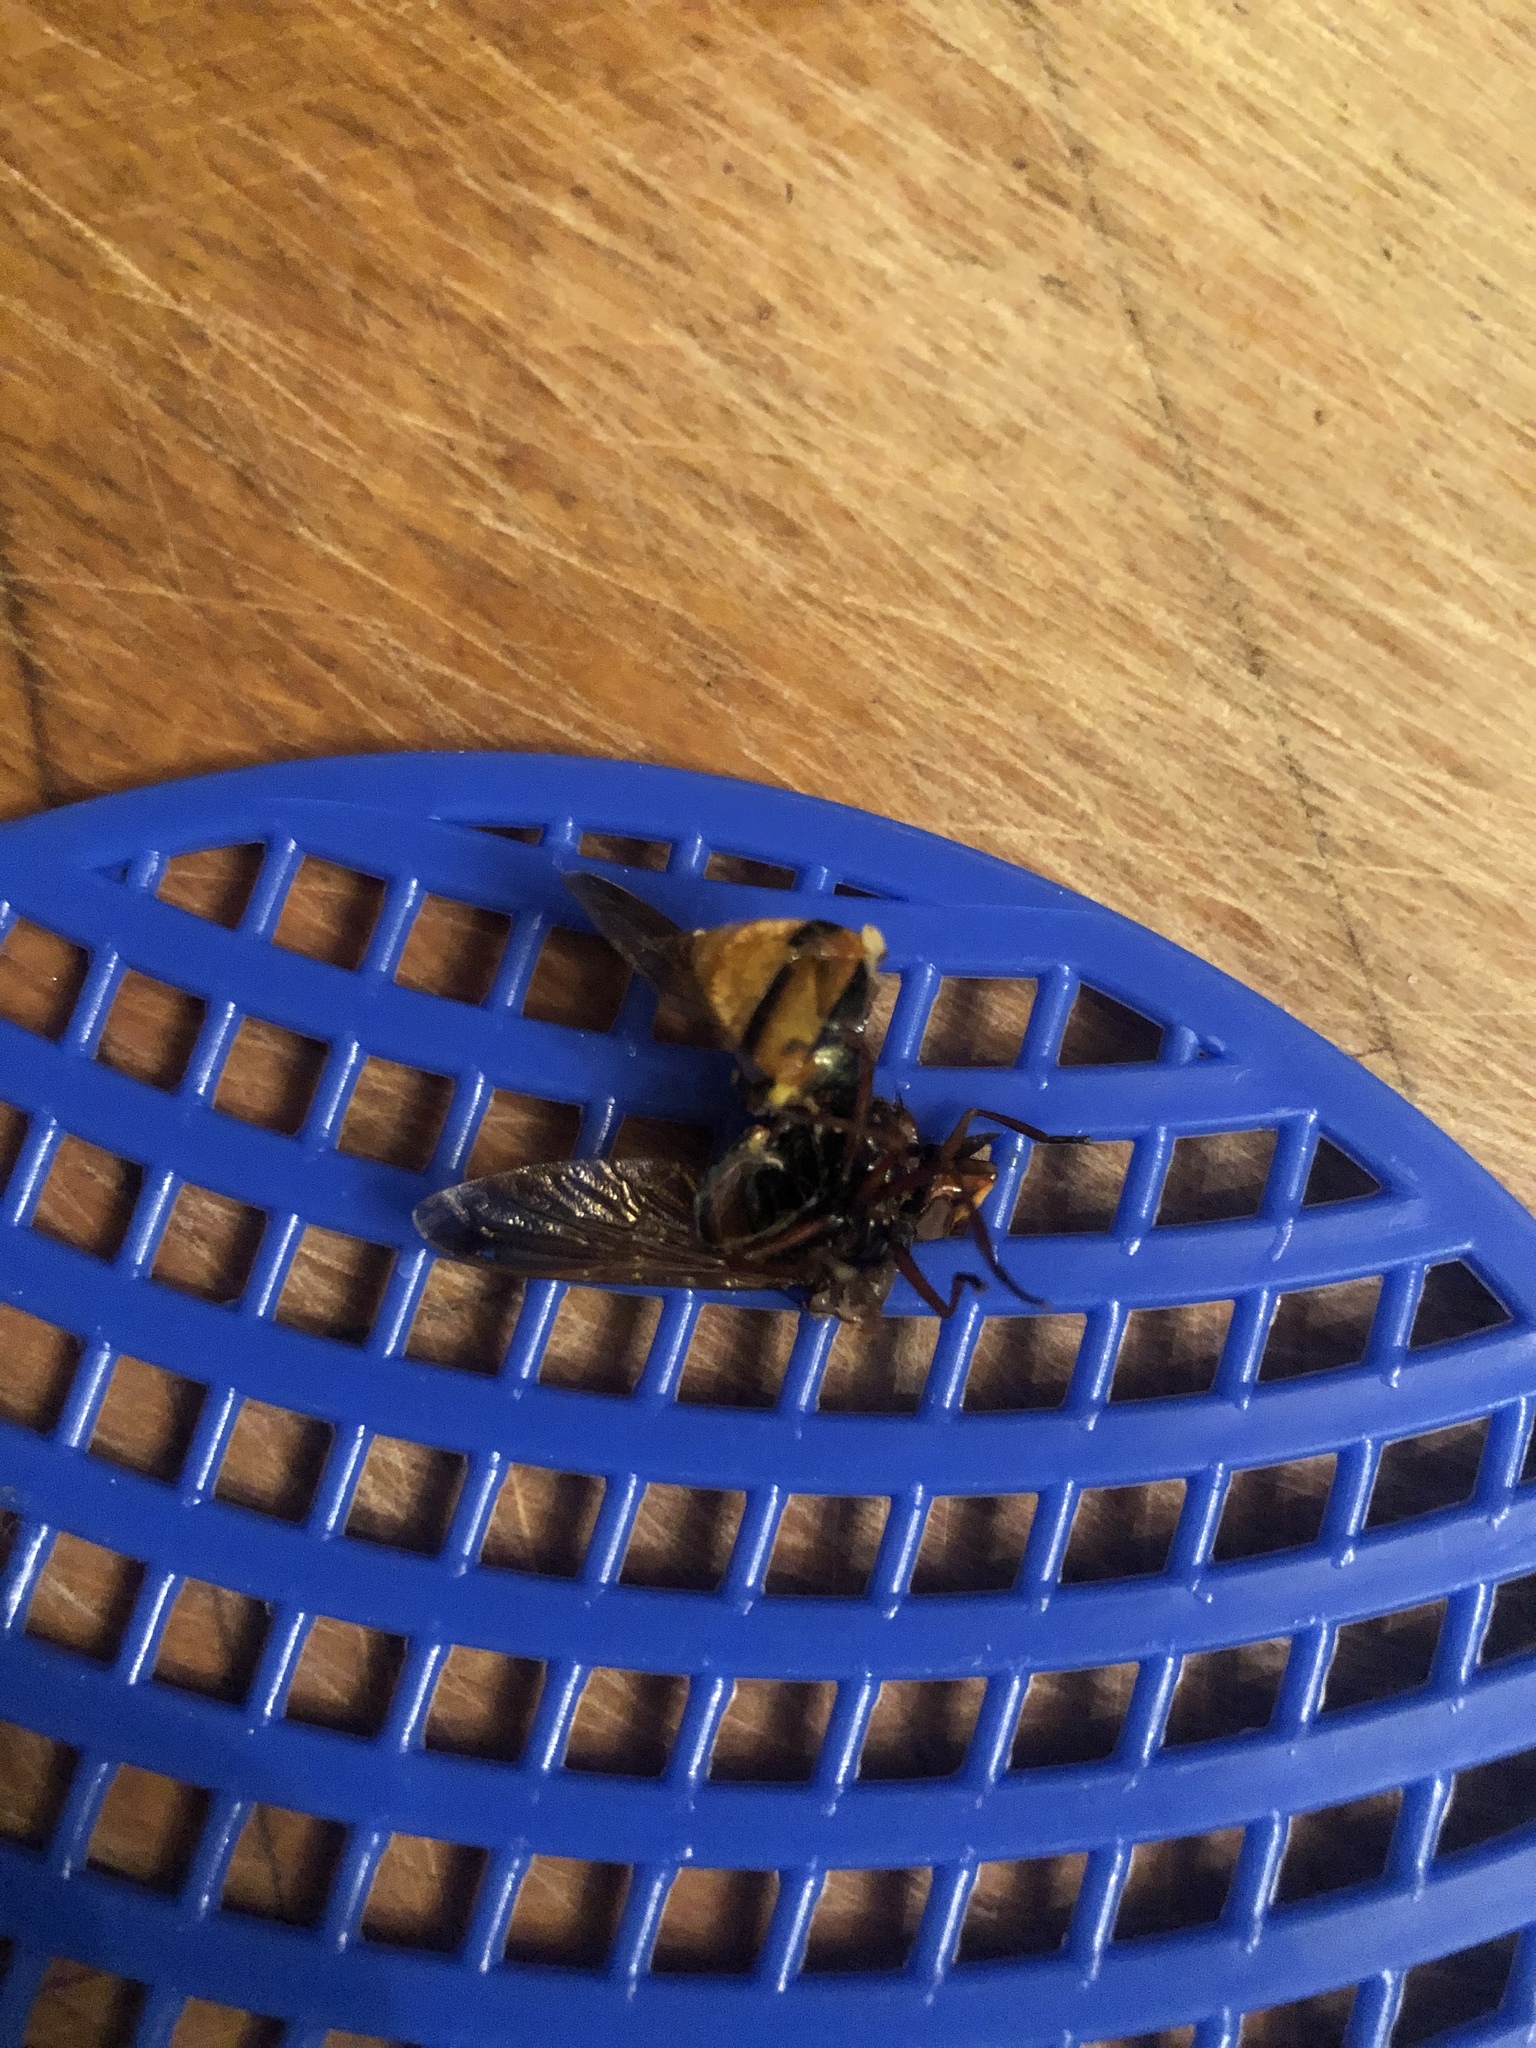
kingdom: Animalia
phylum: Arthropoda
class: Insecta
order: Diptera
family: Syrphidae
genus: Volucella
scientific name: Volucella zonaria
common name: Hornet hoverfly
